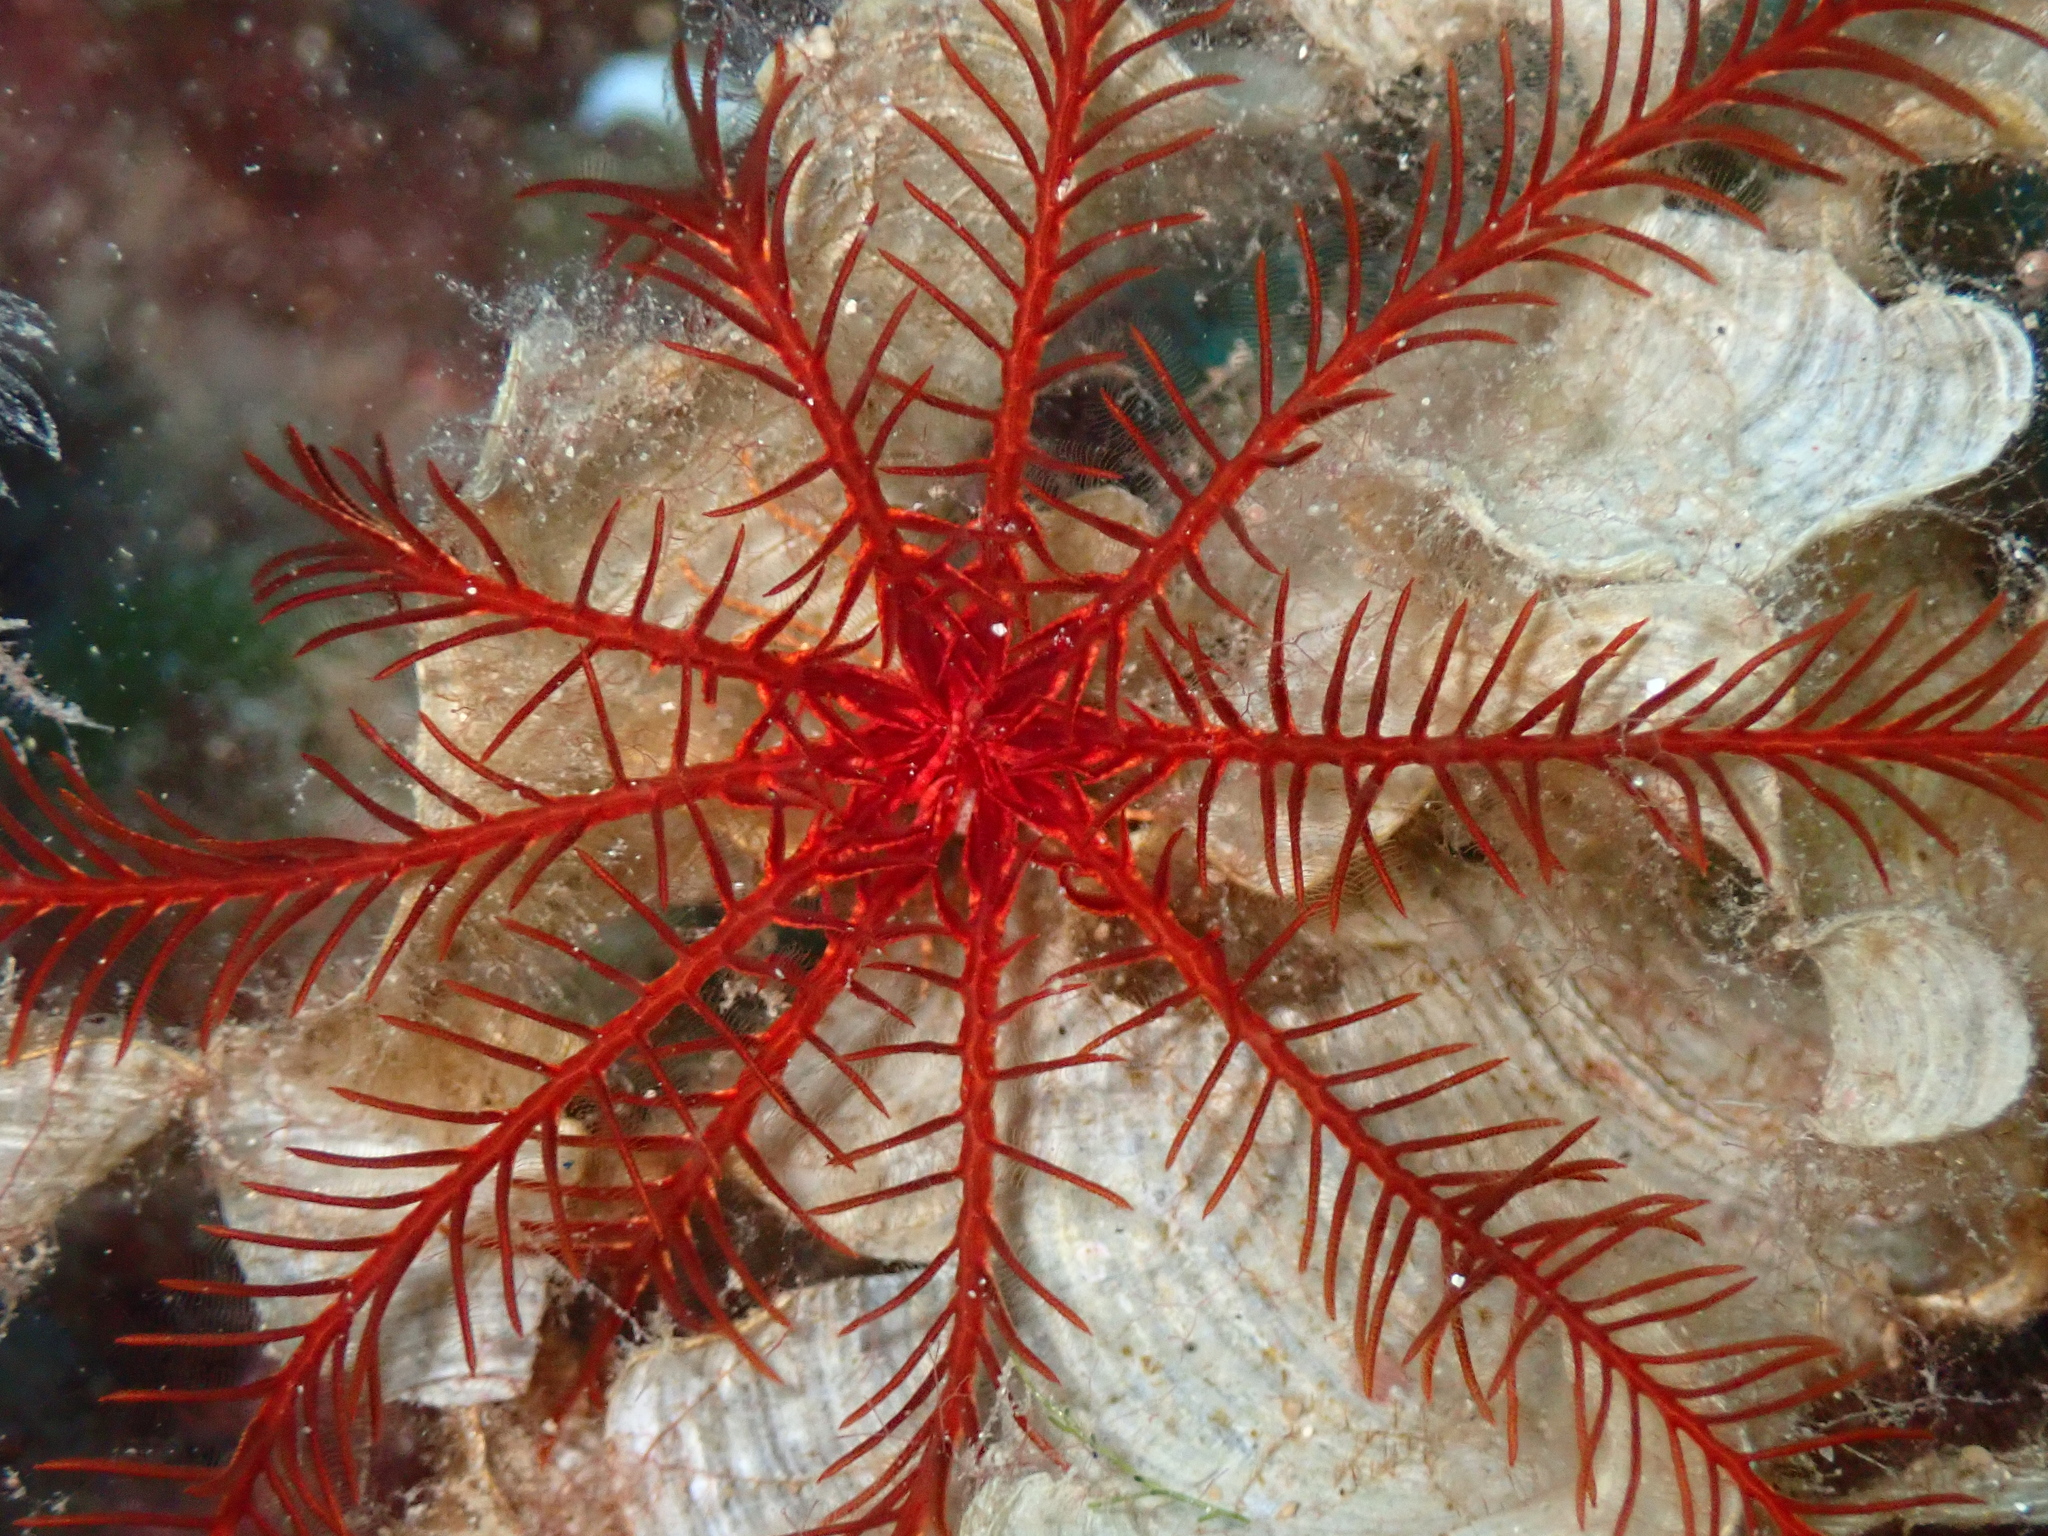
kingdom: Animalia
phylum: Echinodermata
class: Crinoidea
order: Comatulida
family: Antedonidae
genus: Antedon
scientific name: Antedon mediterranea
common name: Feather star
